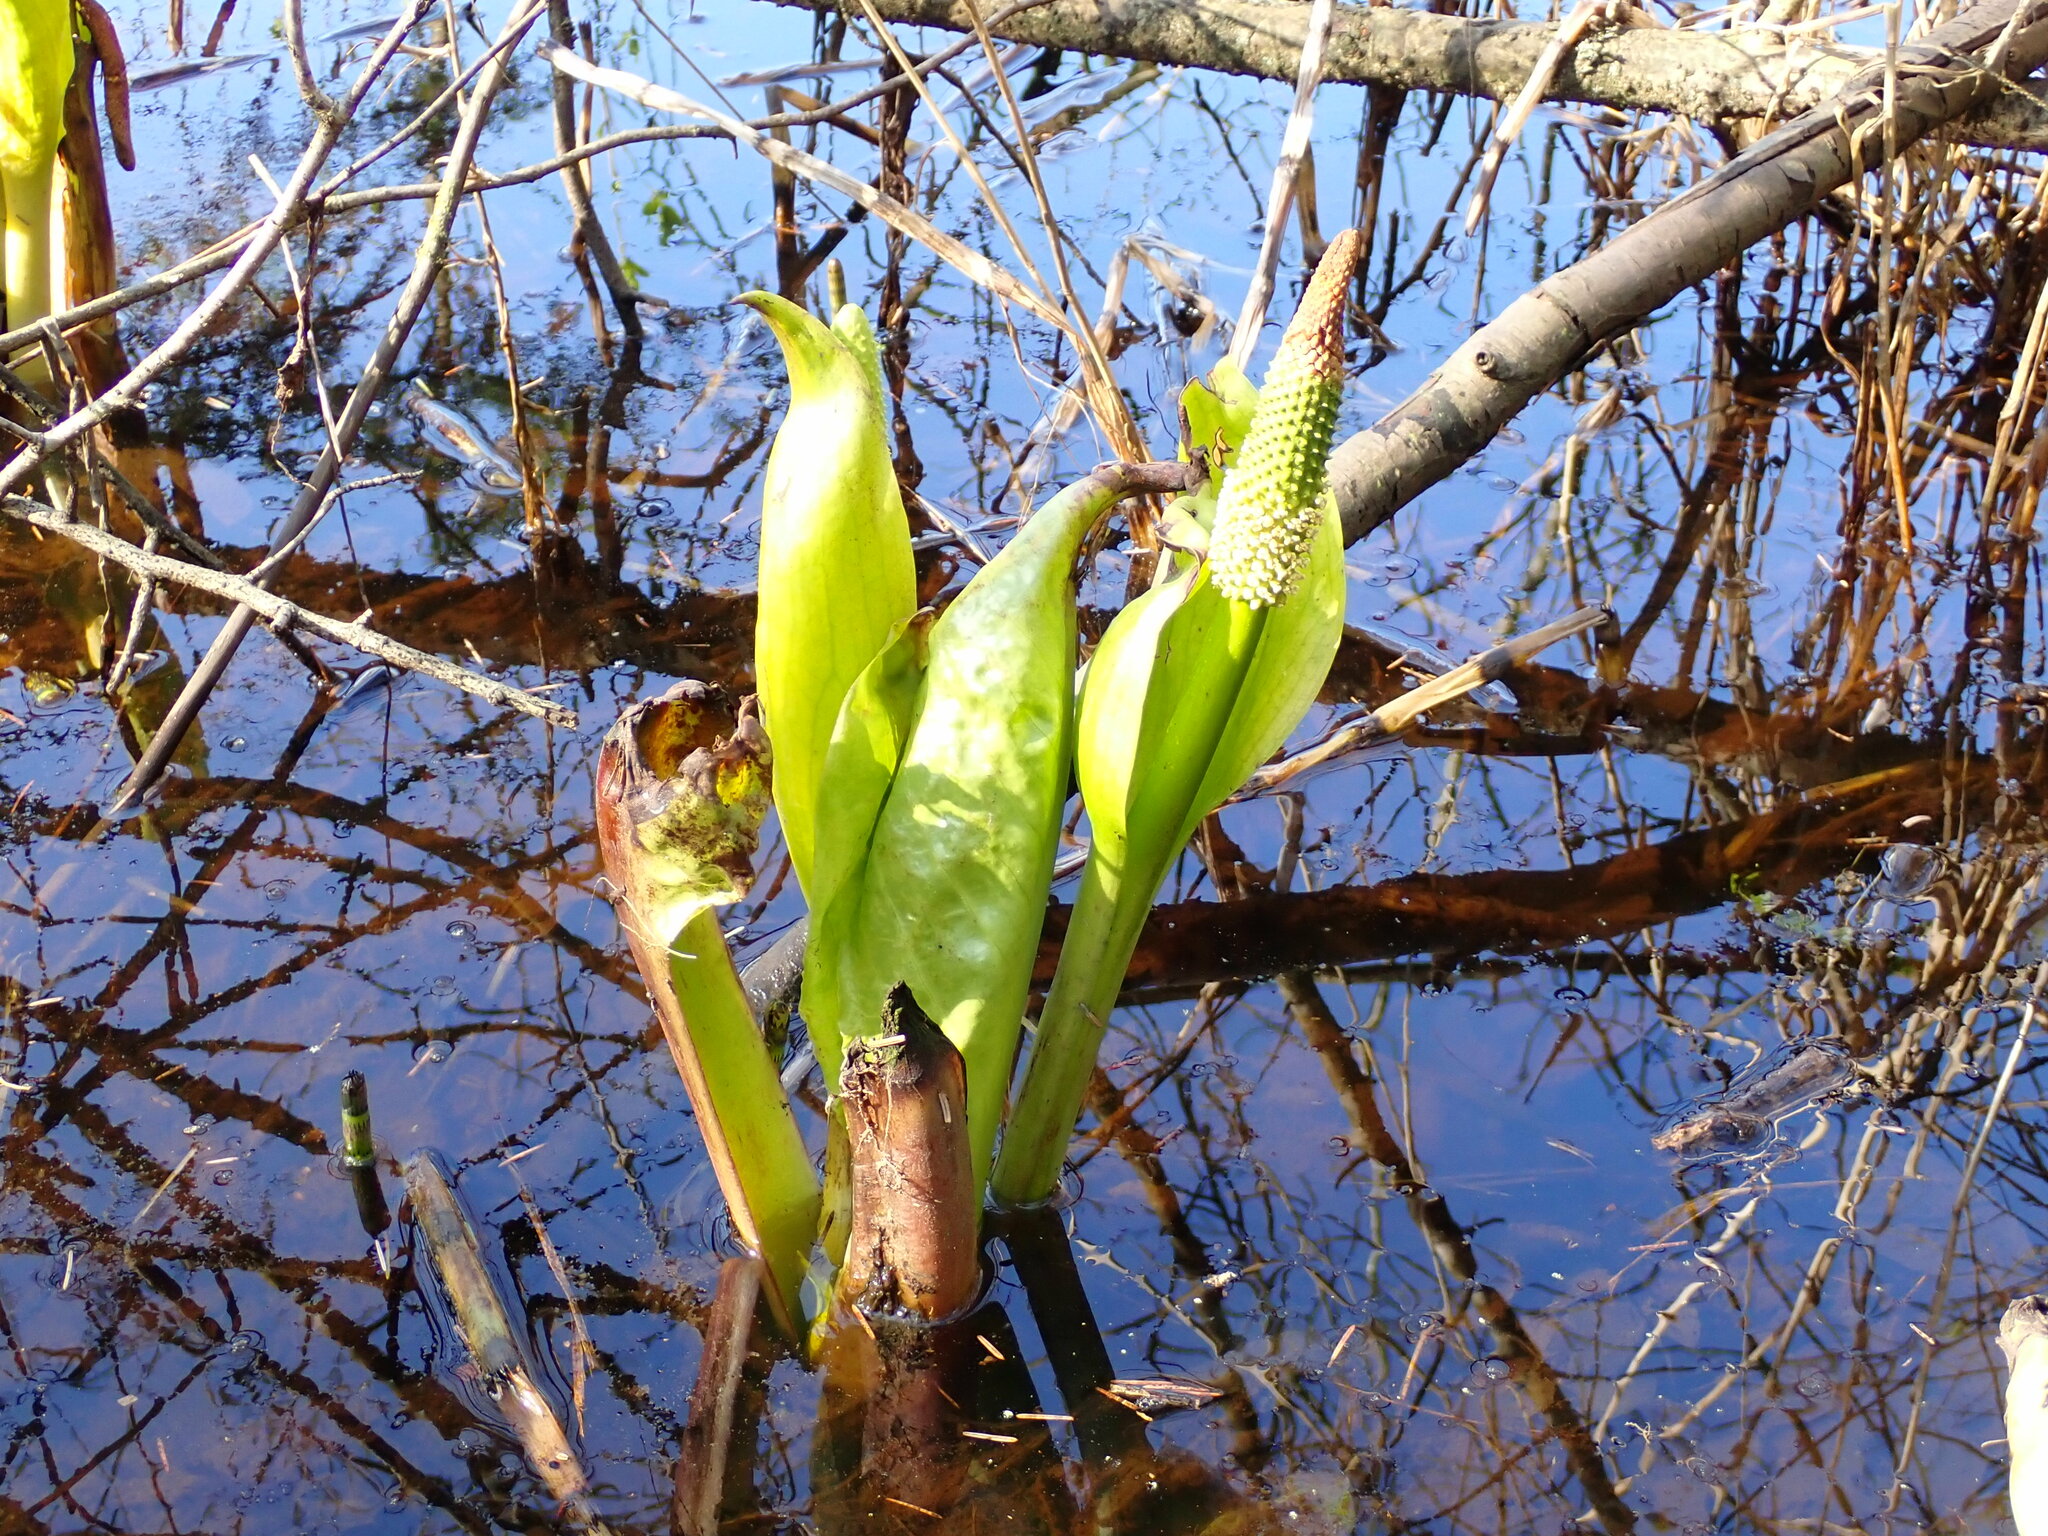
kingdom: Plantae
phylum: Tracheophyta
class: Liliopsida
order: Alismatales
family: Araceae
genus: Lysichiton
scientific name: Lysichiton americanus
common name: American skunk cabbage
